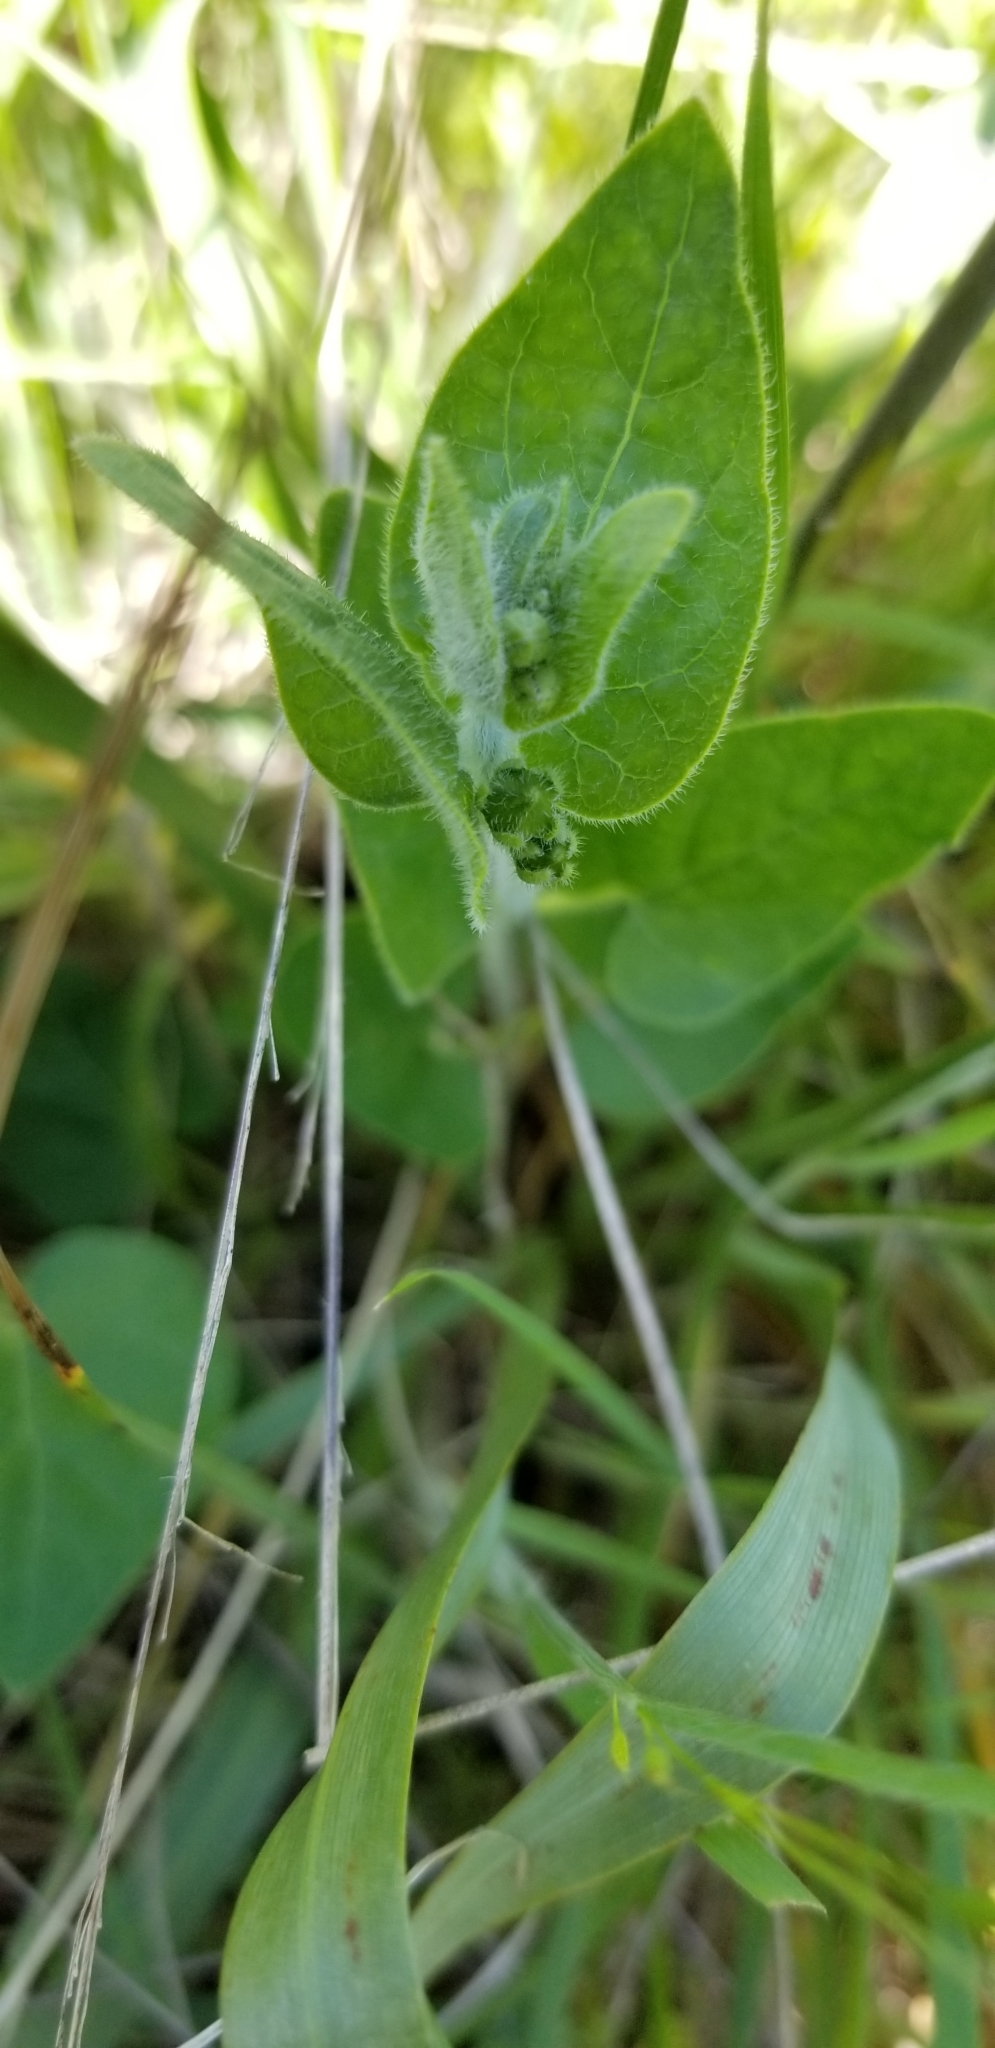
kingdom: Plantae
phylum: Tracheophyta
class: Magnoliopsida
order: Gentianales
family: Apocynaceae
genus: Chthamalia
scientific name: Chthamalia biflora
